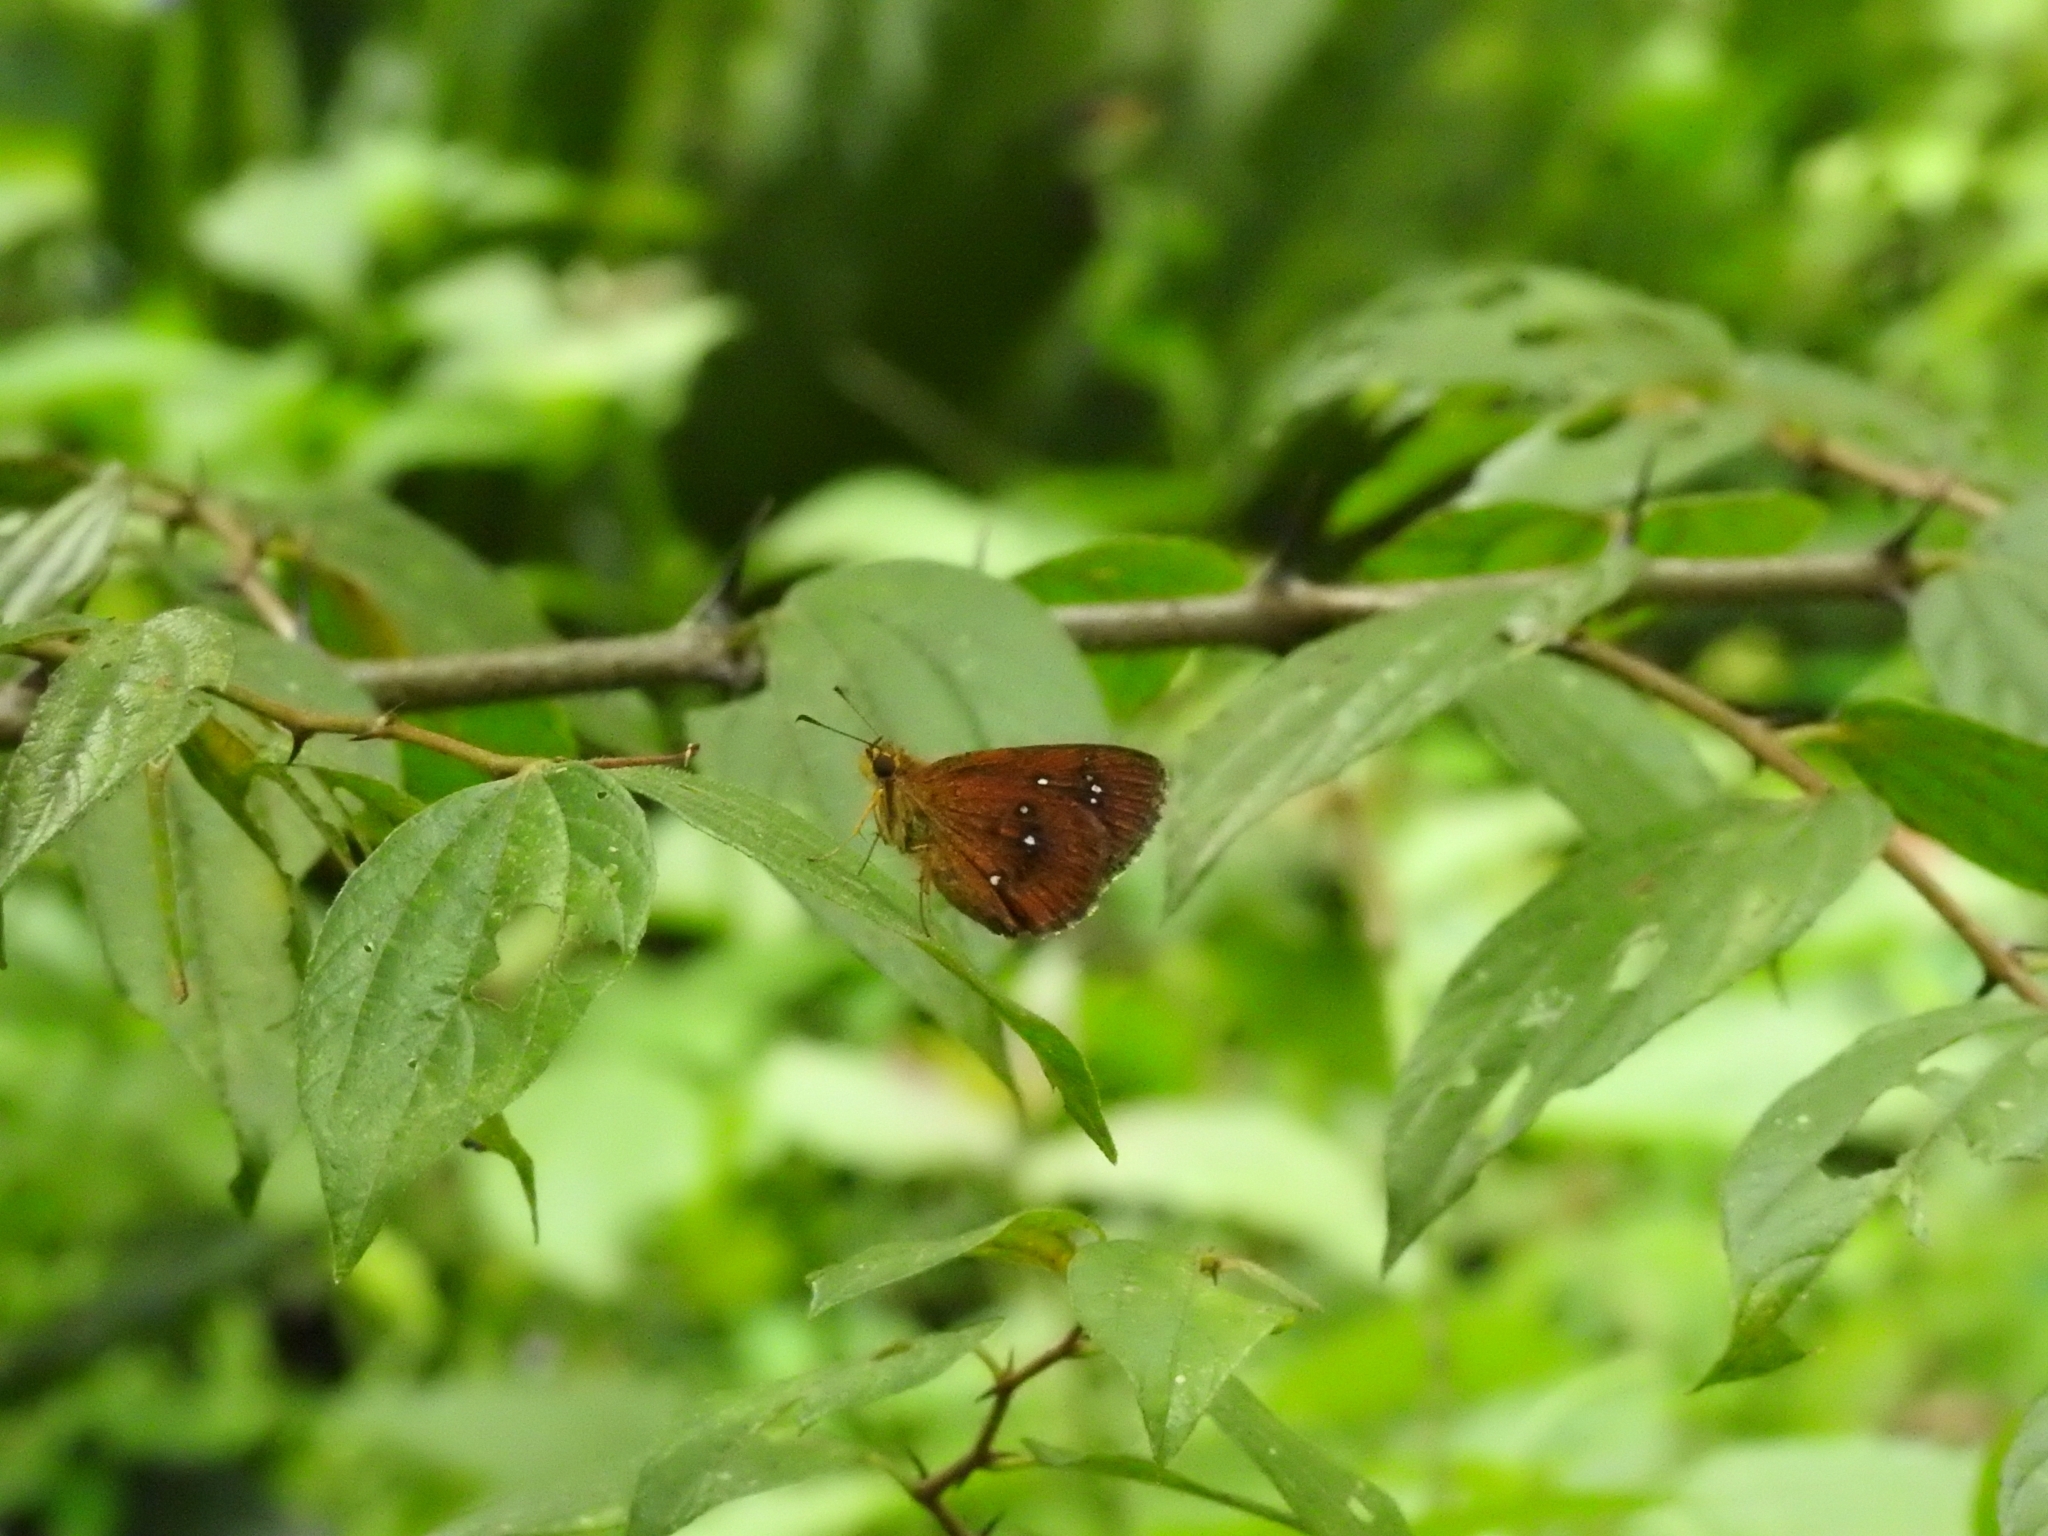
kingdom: Animalia
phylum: Arthropoda
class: Insecta
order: Lepidoptera
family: Hesperiidae
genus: Iambrix
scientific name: Iambrix salsala
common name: Chestnut bob
